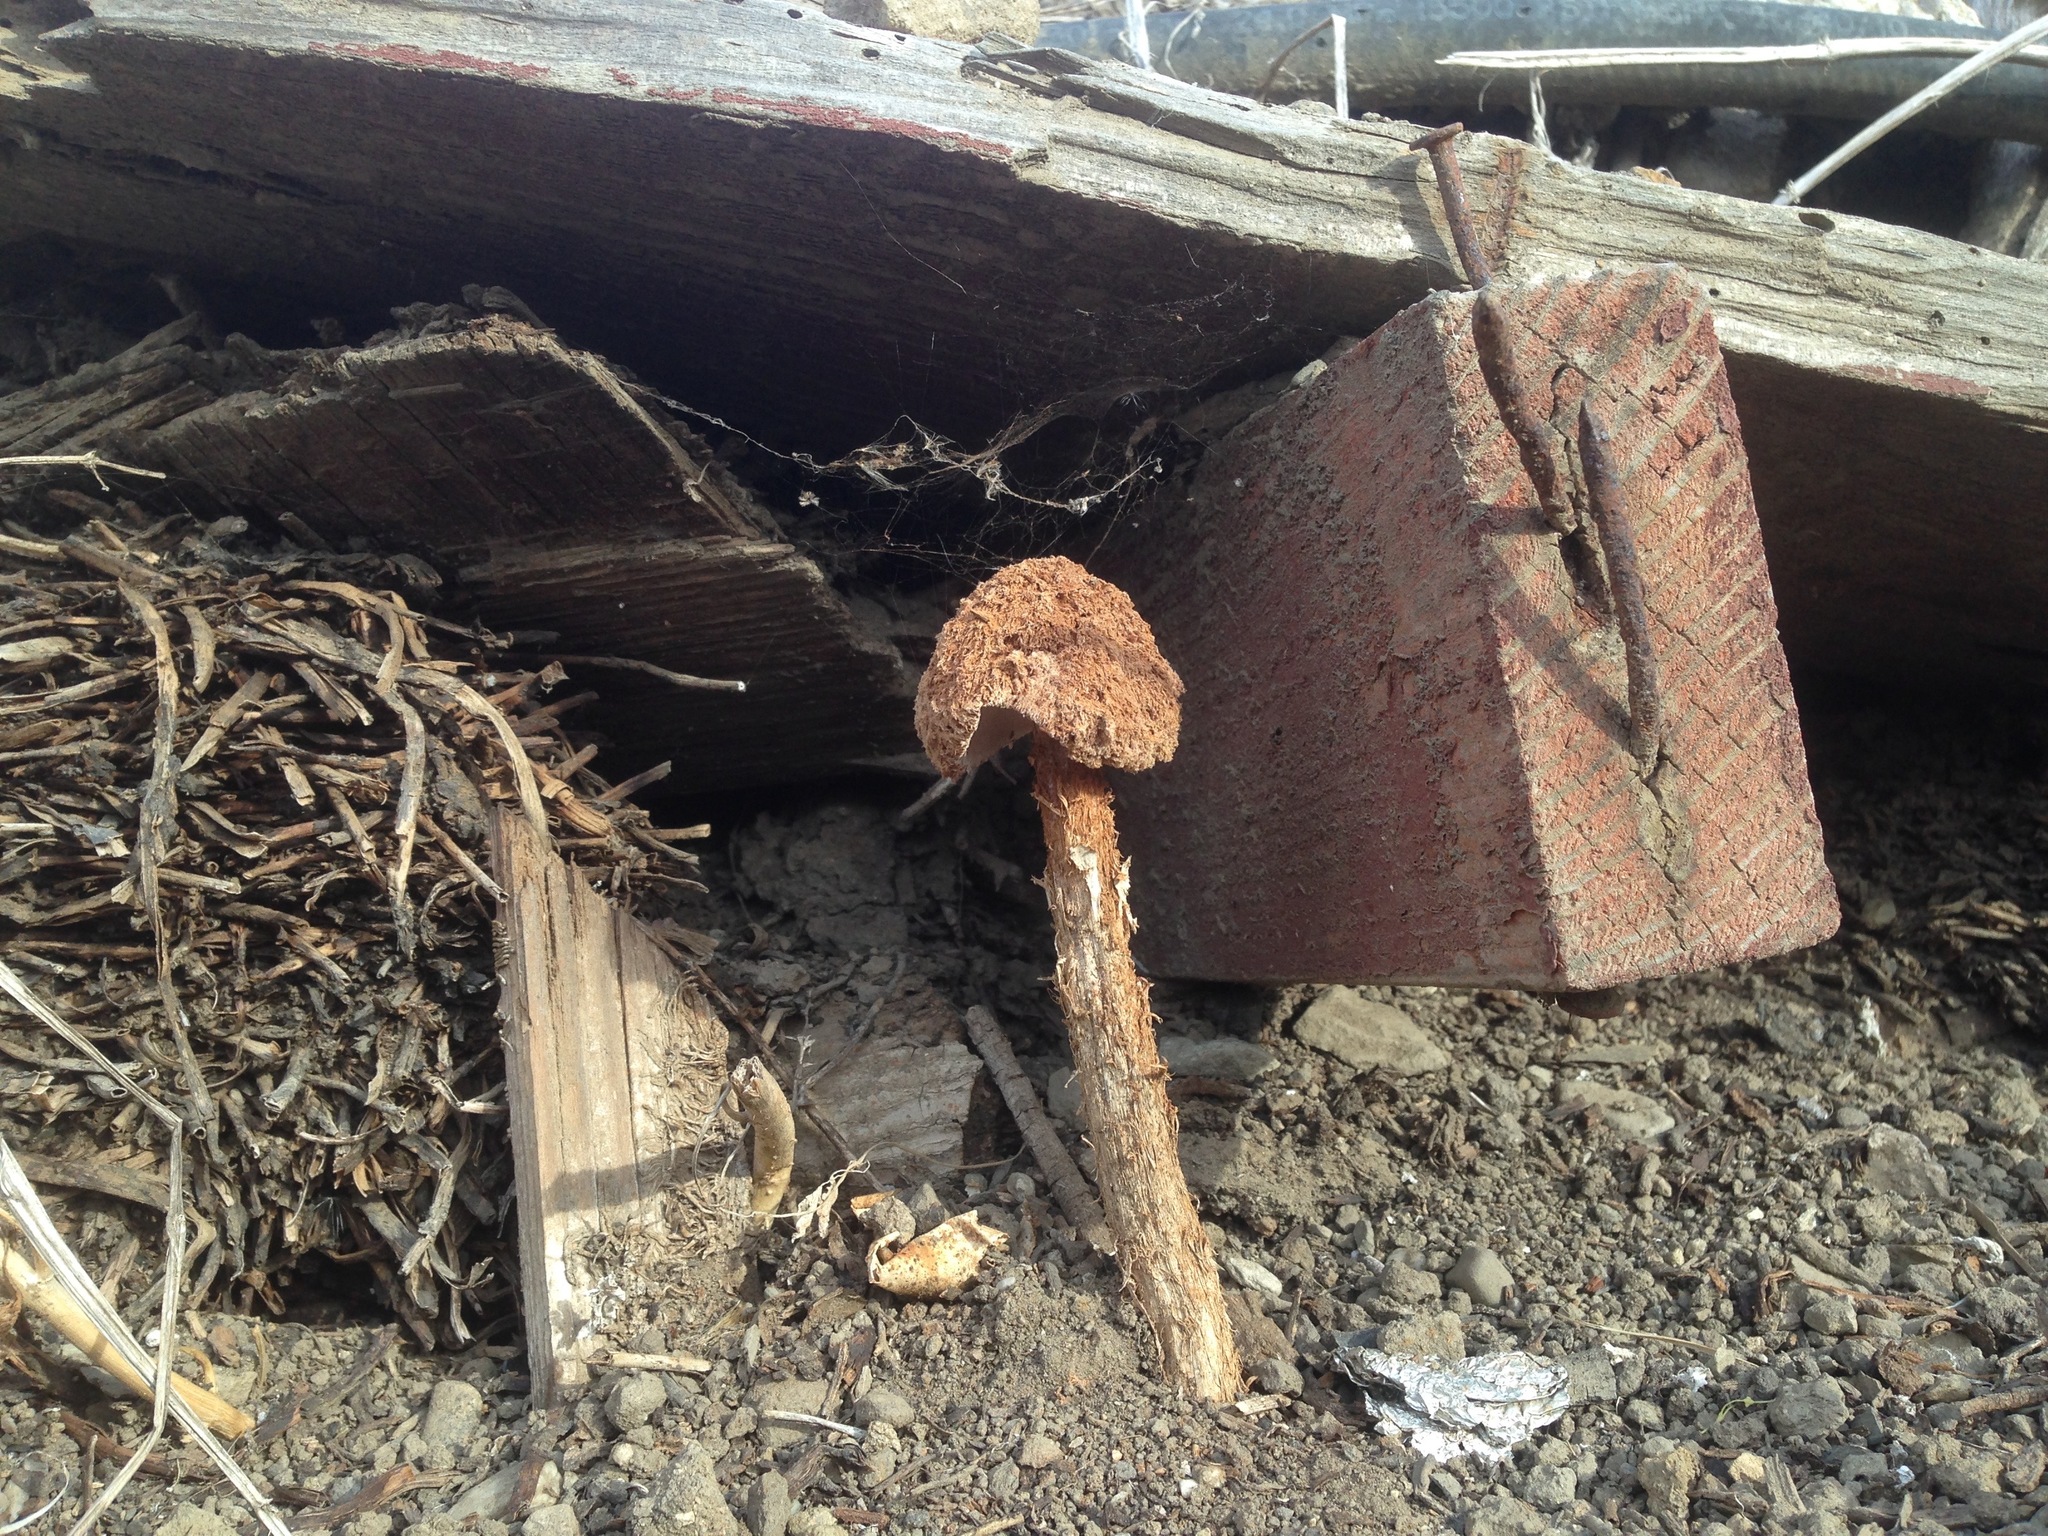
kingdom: Fungi
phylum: Basidiomycota
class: Agaricomycetes
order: Agaricales
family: Agaricaceae
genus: Battarrea
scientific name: Battarrea phalloides
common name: Sandy stiltball
